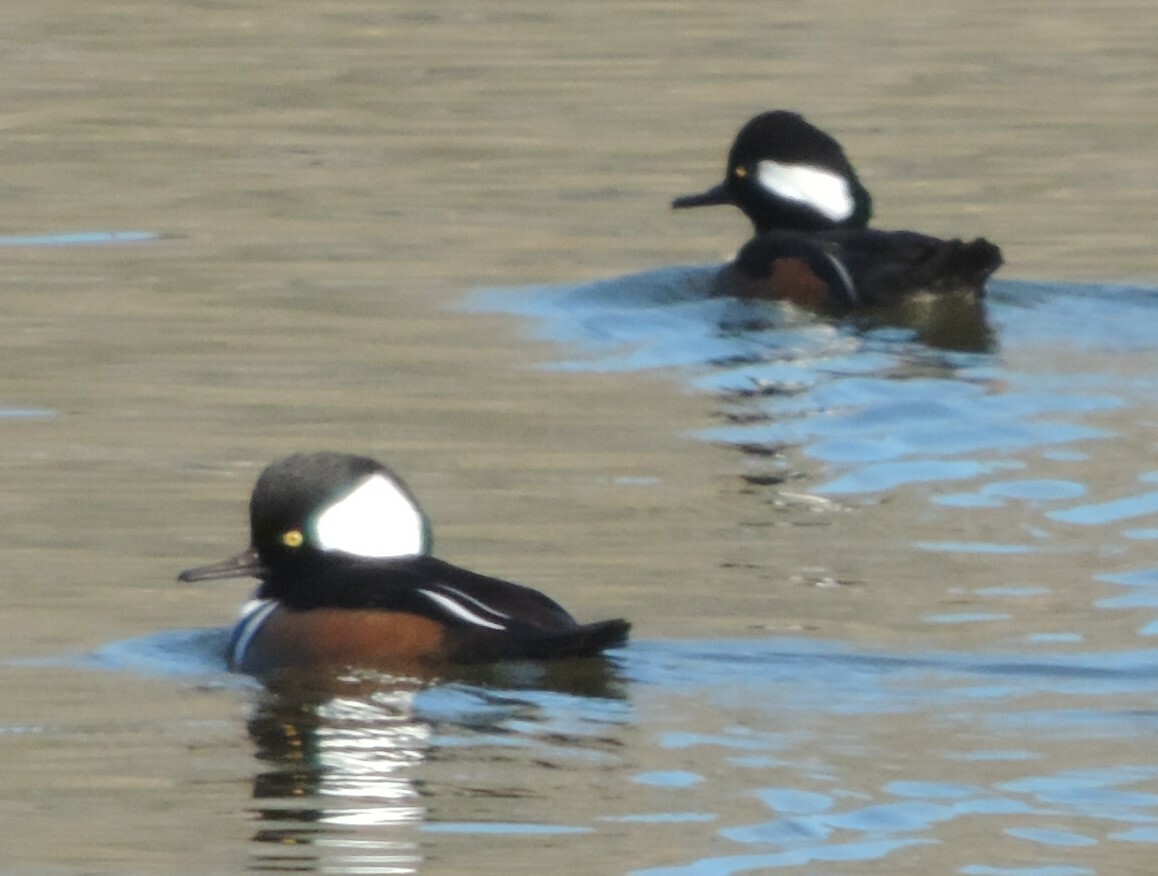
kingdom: Animalia
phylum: Chordata
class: Aves
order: Anseriformes
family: Anatidae
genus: Lophodytes
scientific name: Lophodytes cucullatus
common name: Hooded merganser
